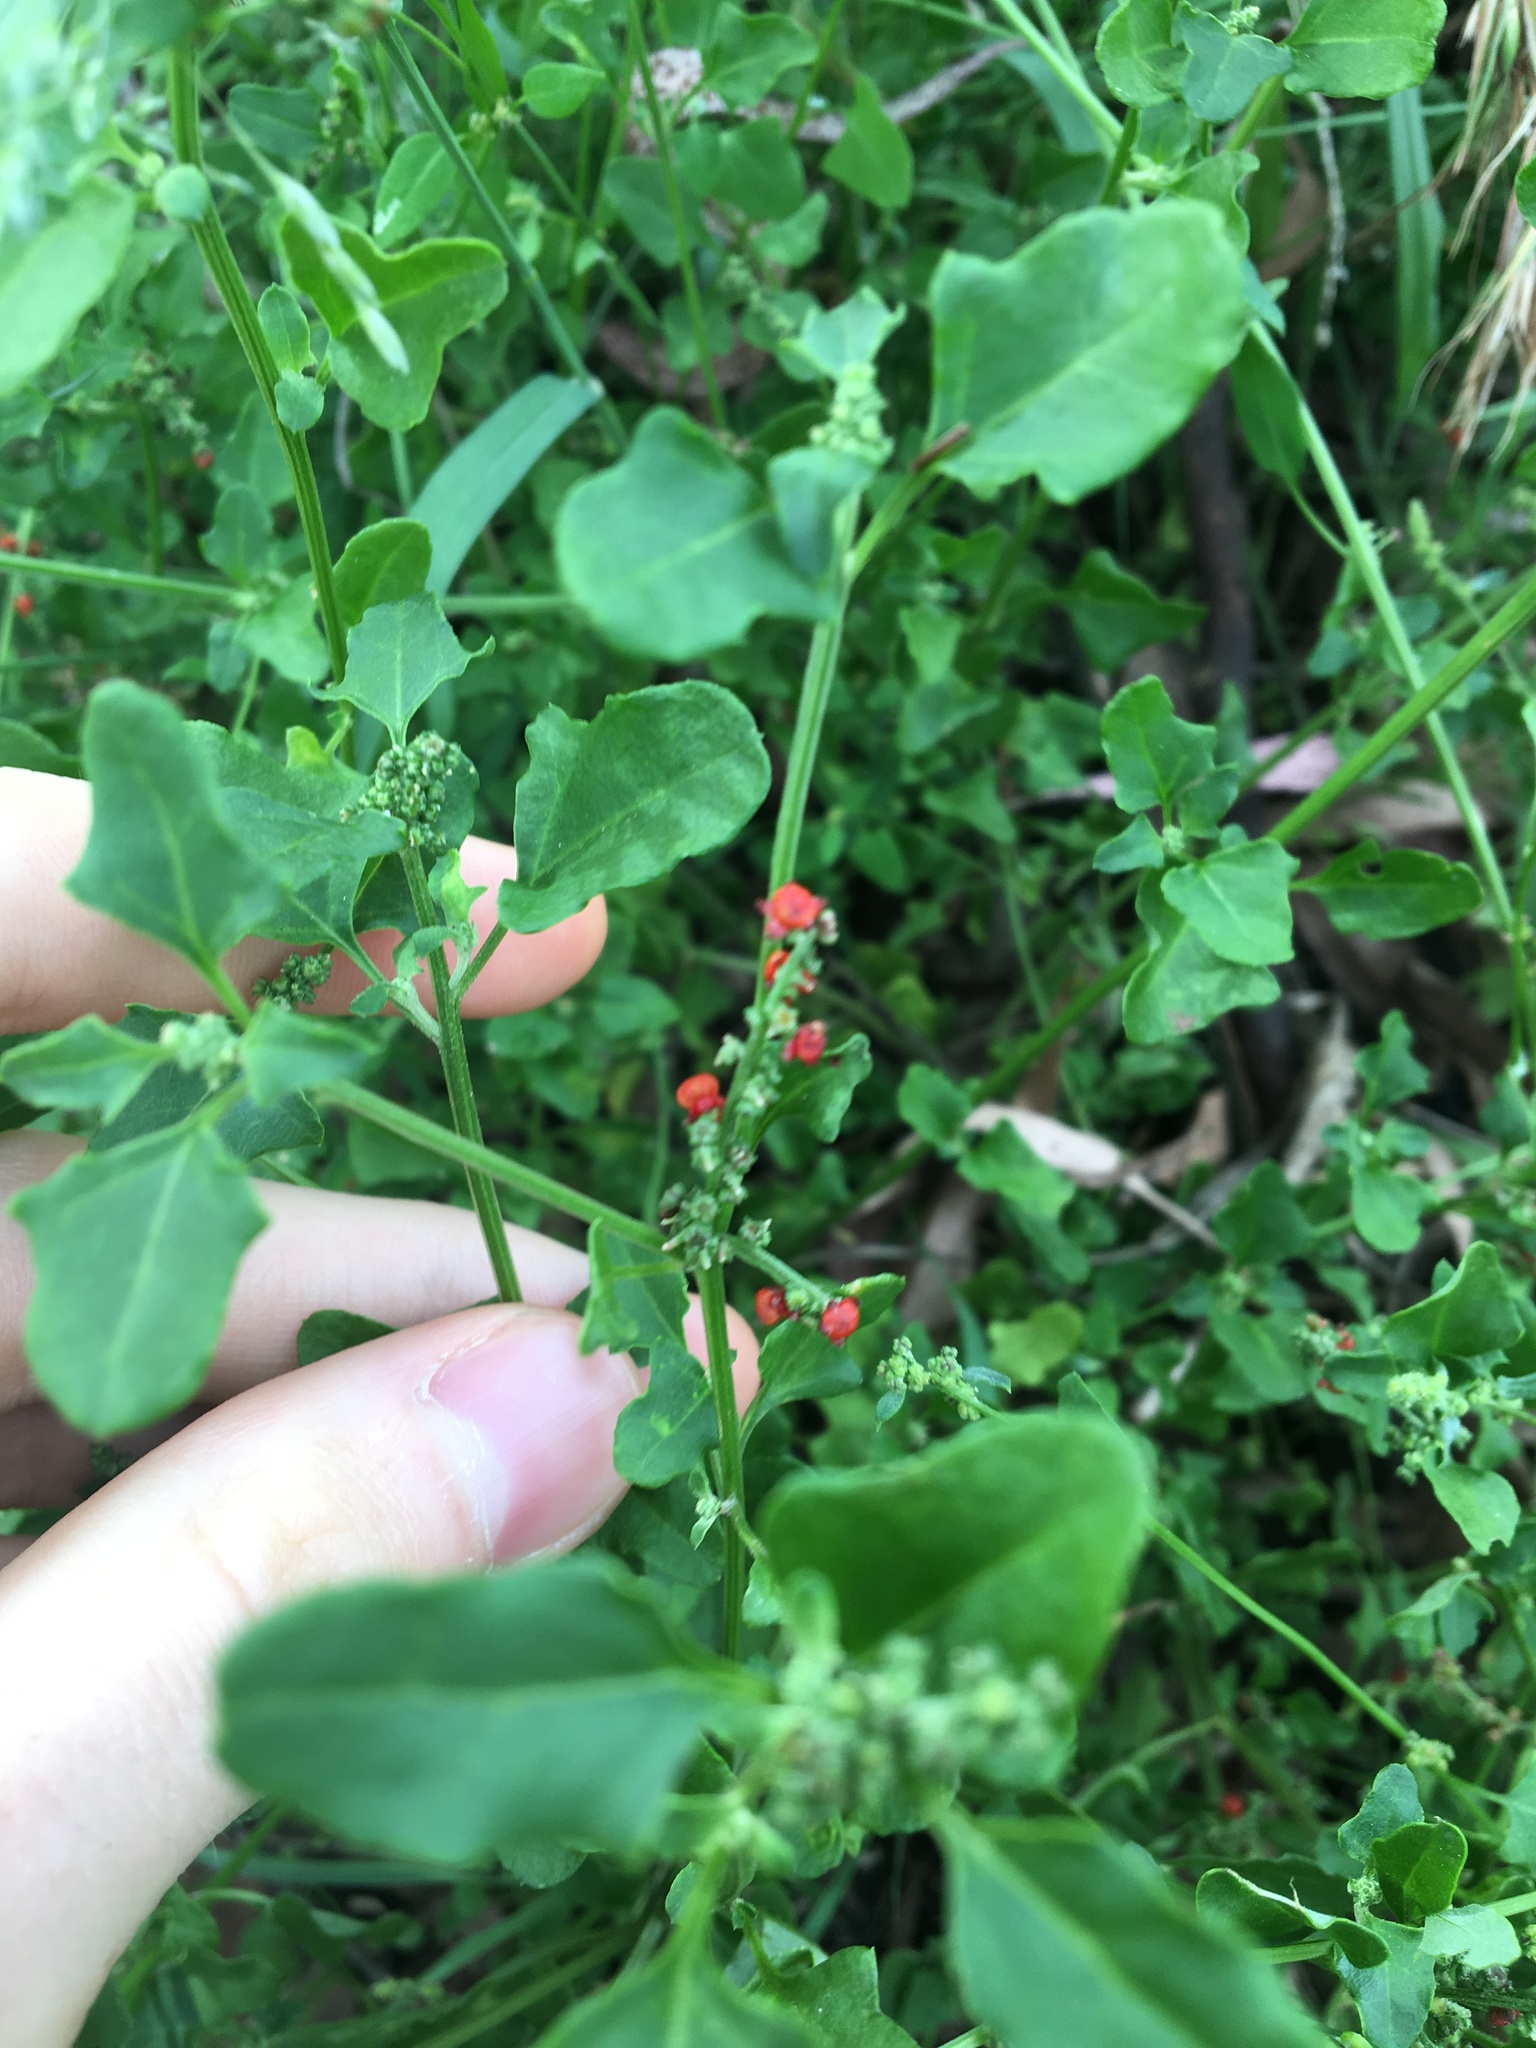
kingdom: Plantae
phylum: Tracheophyta
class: Magnoliopsida
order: Caryophyllales
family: Amaranthaceae
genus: Chenopodium
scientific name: Chenopodium robertianum
